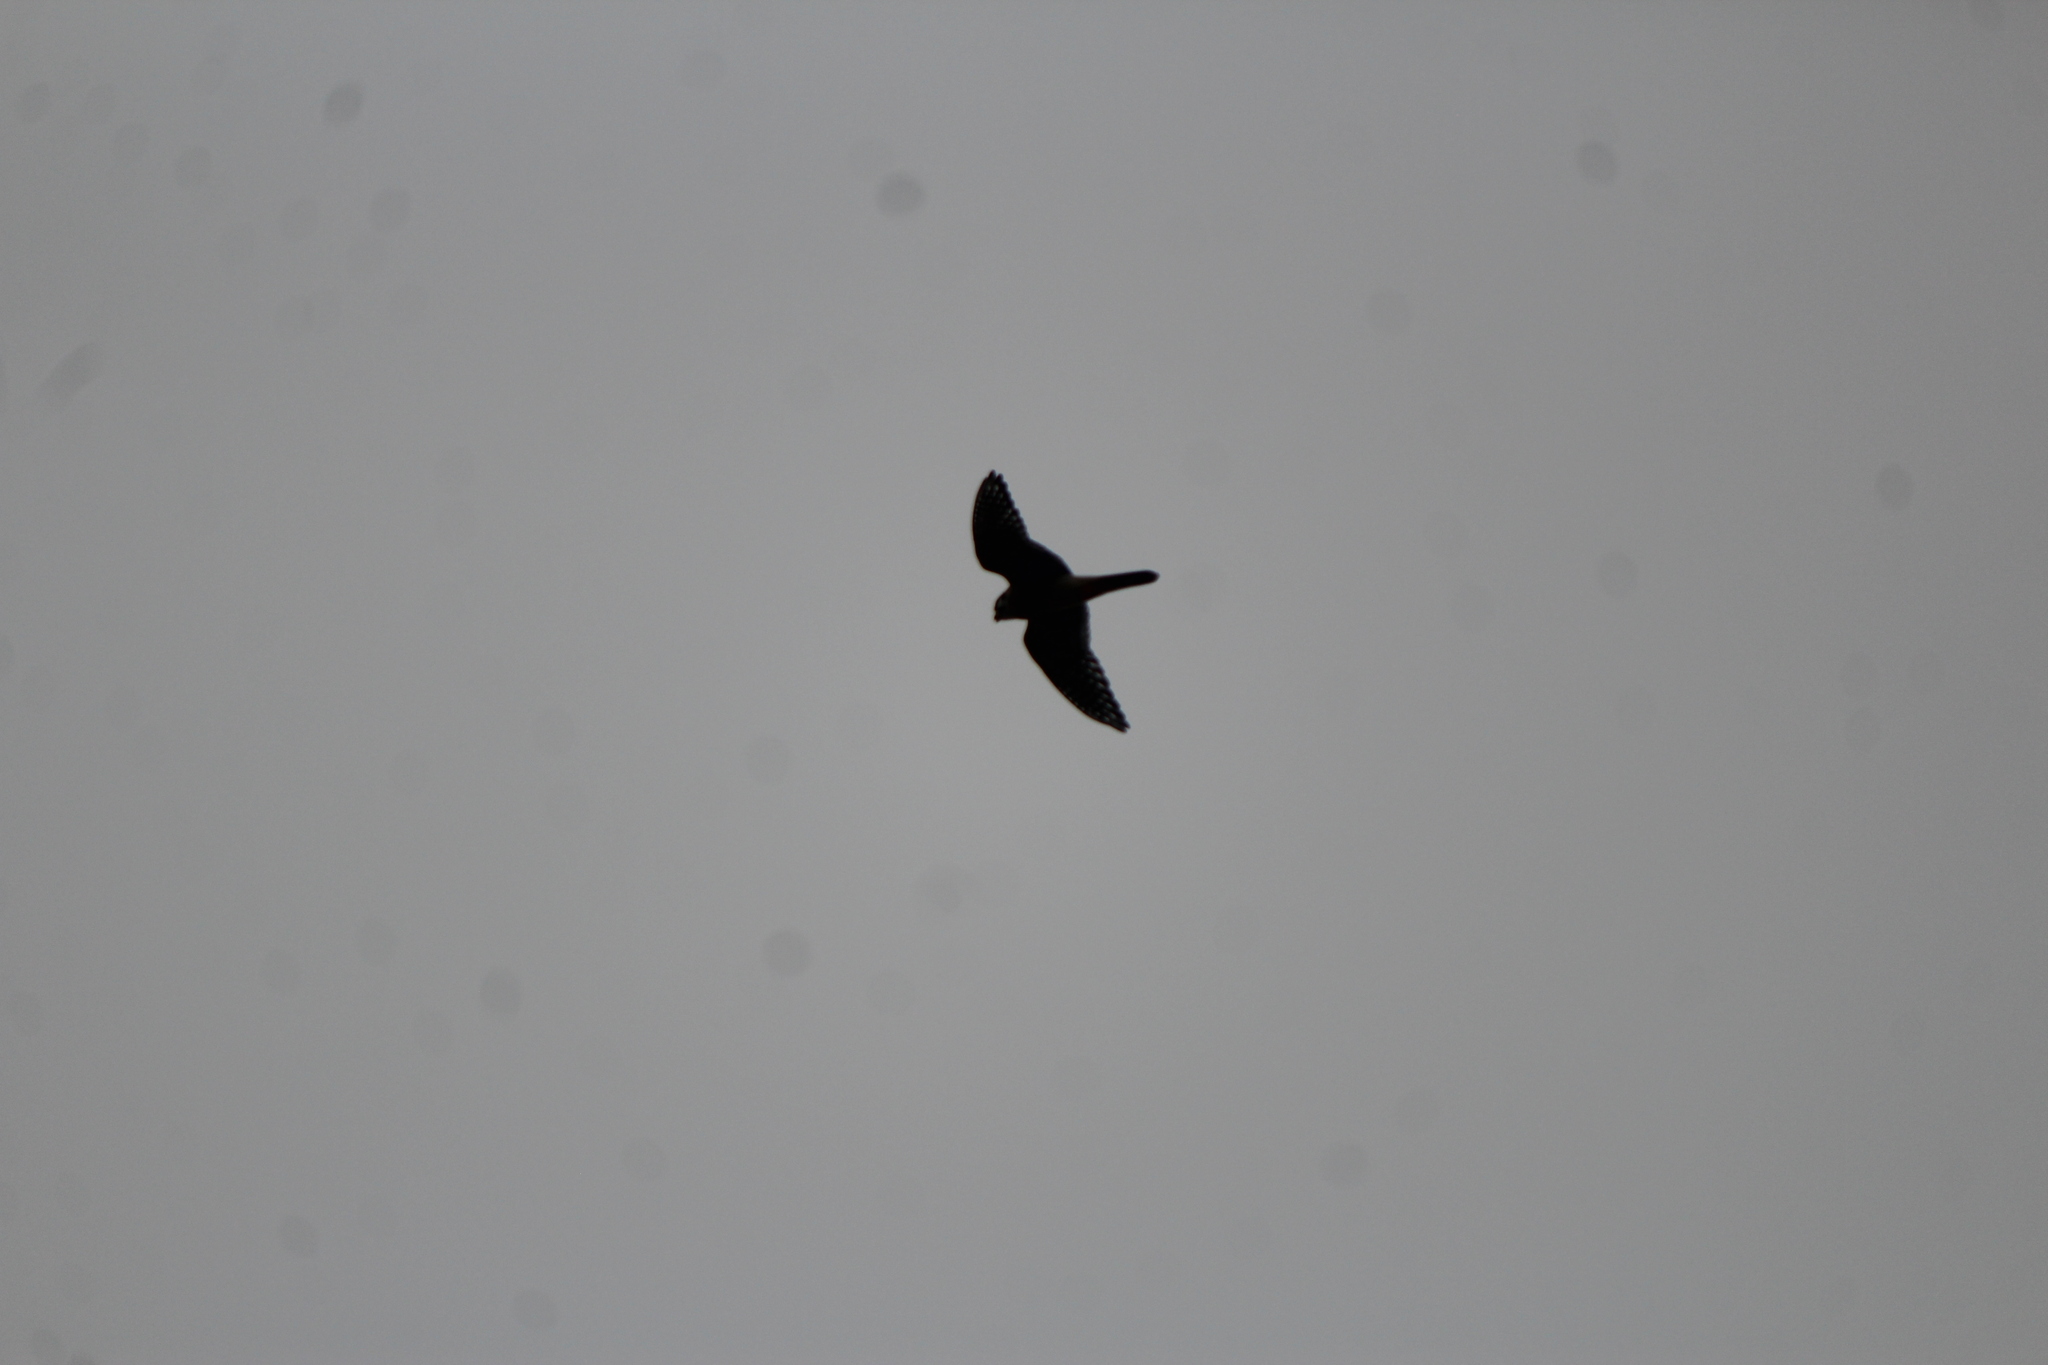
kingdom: Animalia
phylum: Chordata
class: Aves
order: Falconiformes
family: Falconidae
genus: Falco
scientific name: Falco sparverius
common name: American kestrel
